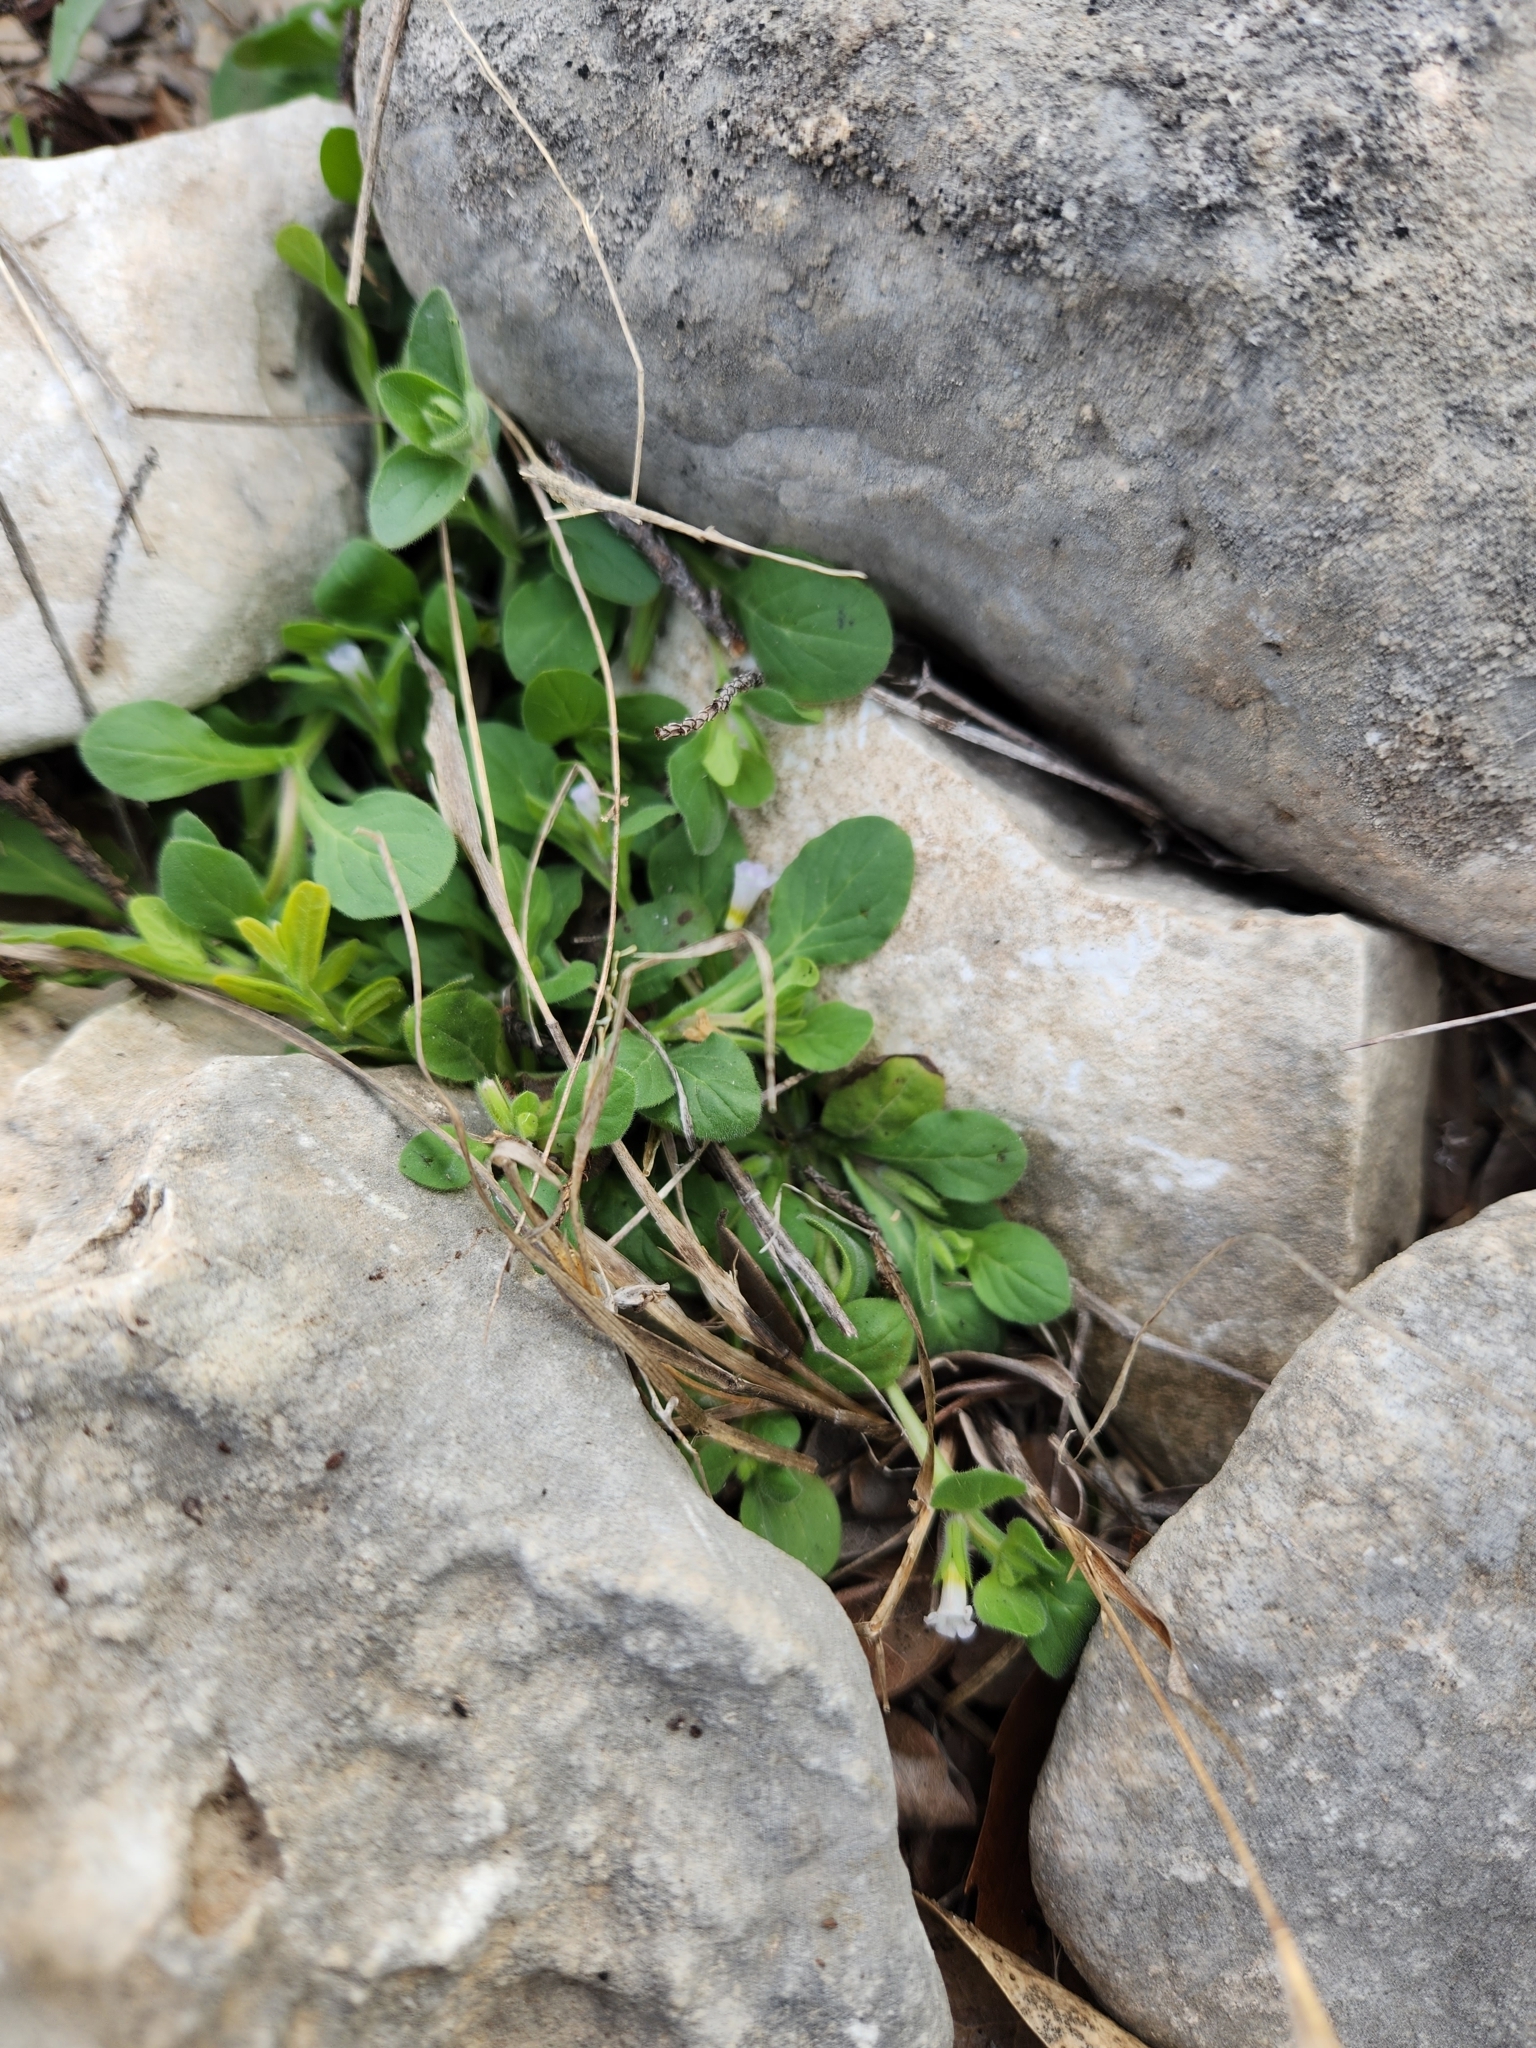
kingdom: Plantae
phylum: Tracheophyta
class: Magnoliopsida
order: Boraginales
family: Namaceae
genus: Nama
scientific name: Nama jamaicensis
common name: Jamaicanweed
